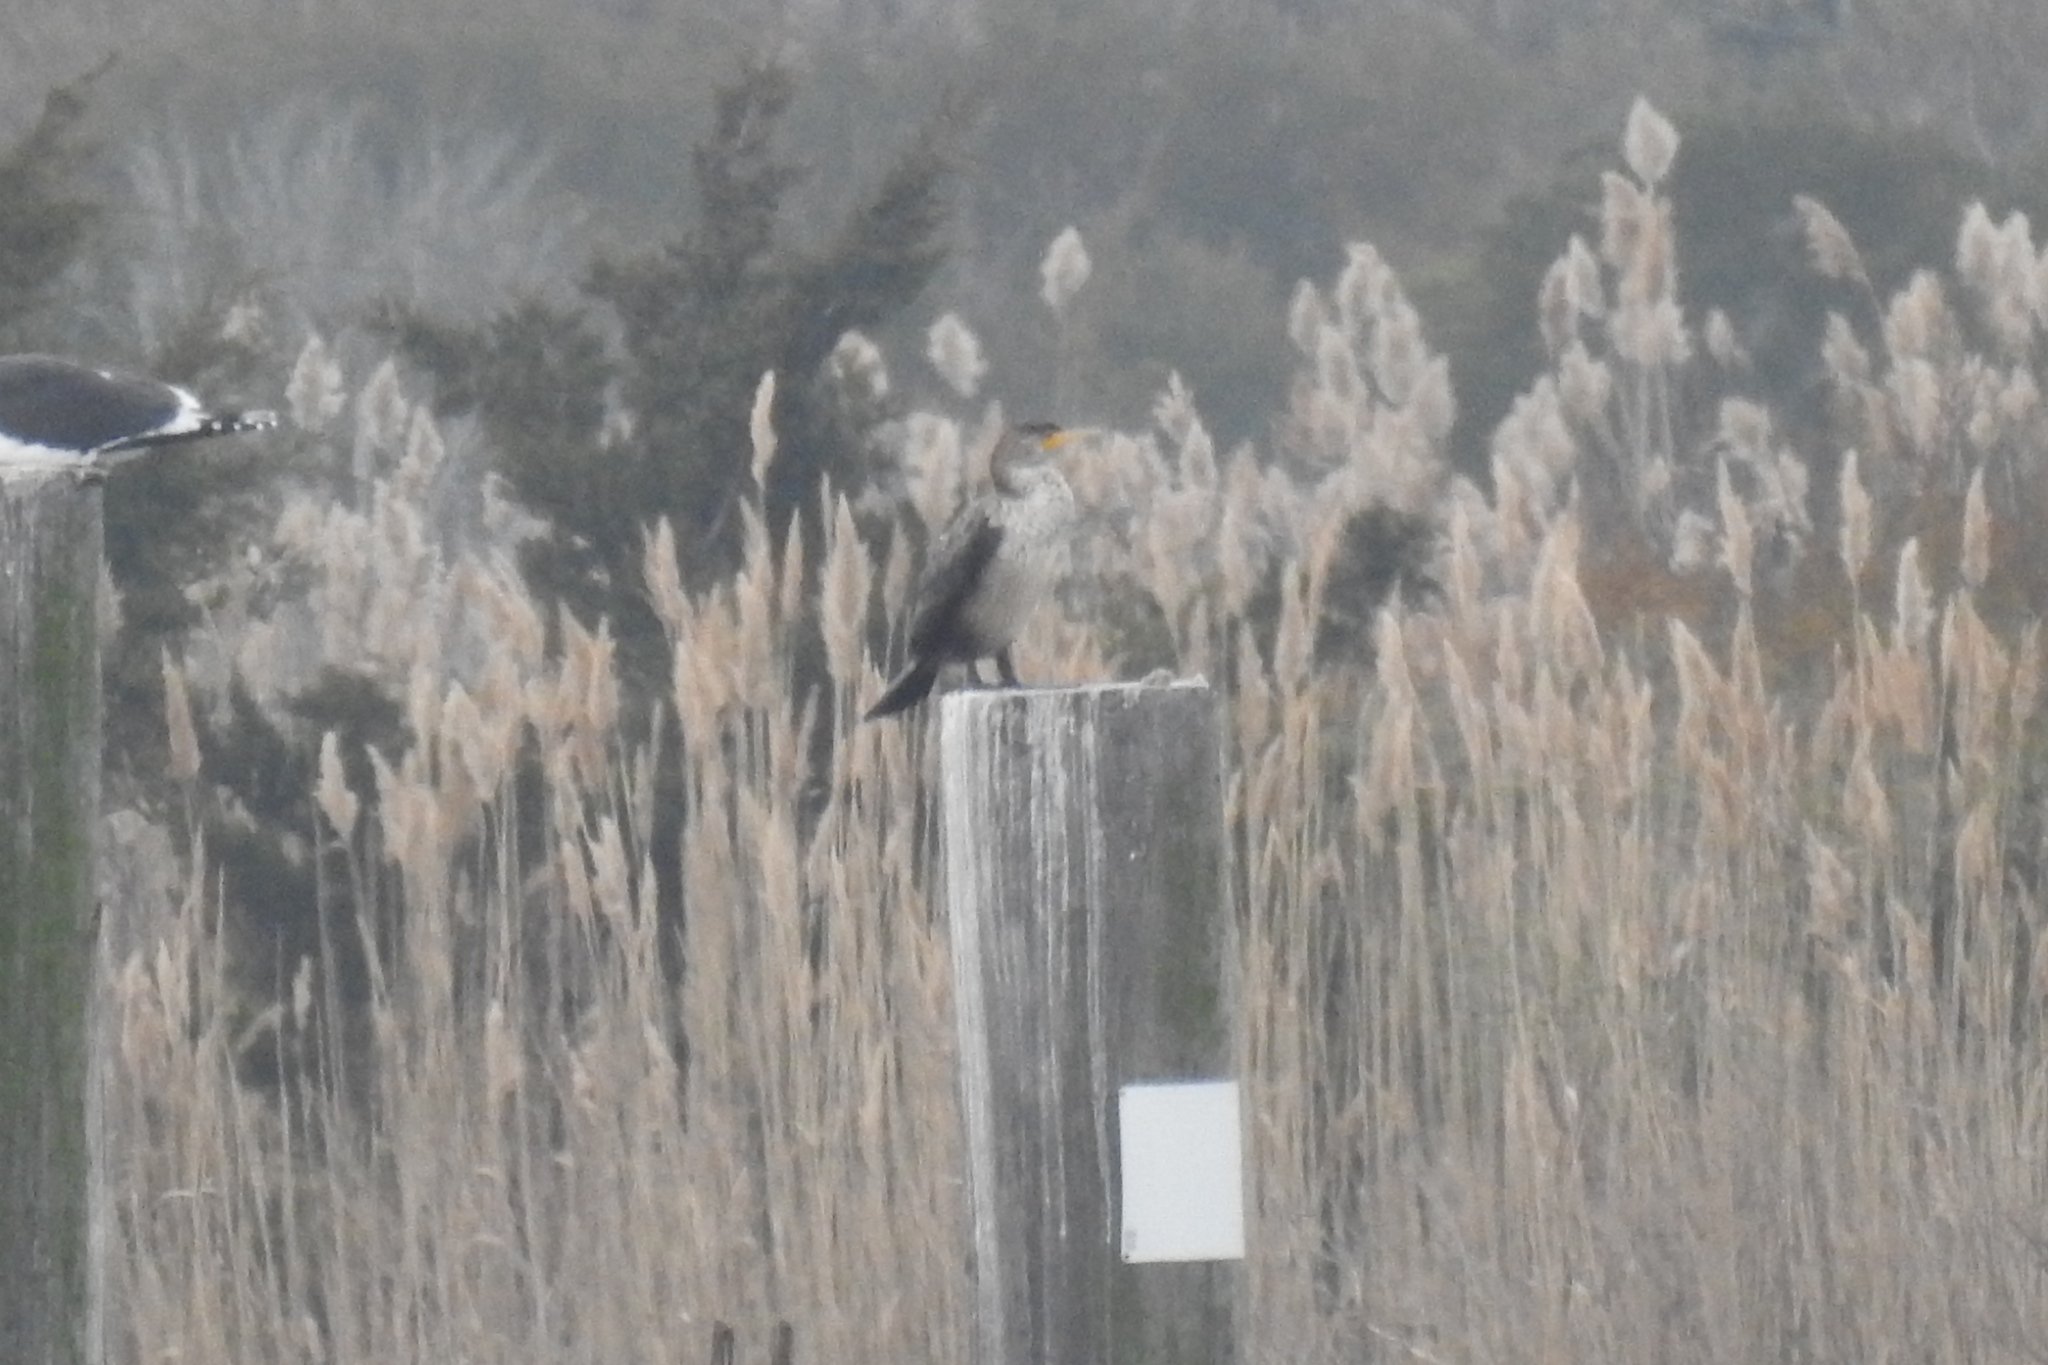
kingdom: Animalia
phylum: Chordata
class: Aves
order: Suliformes
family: Phalacrocoracidae
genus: Phalacrocorax
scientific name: Phalacrocorax auritus
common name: Double-crested cormorant
